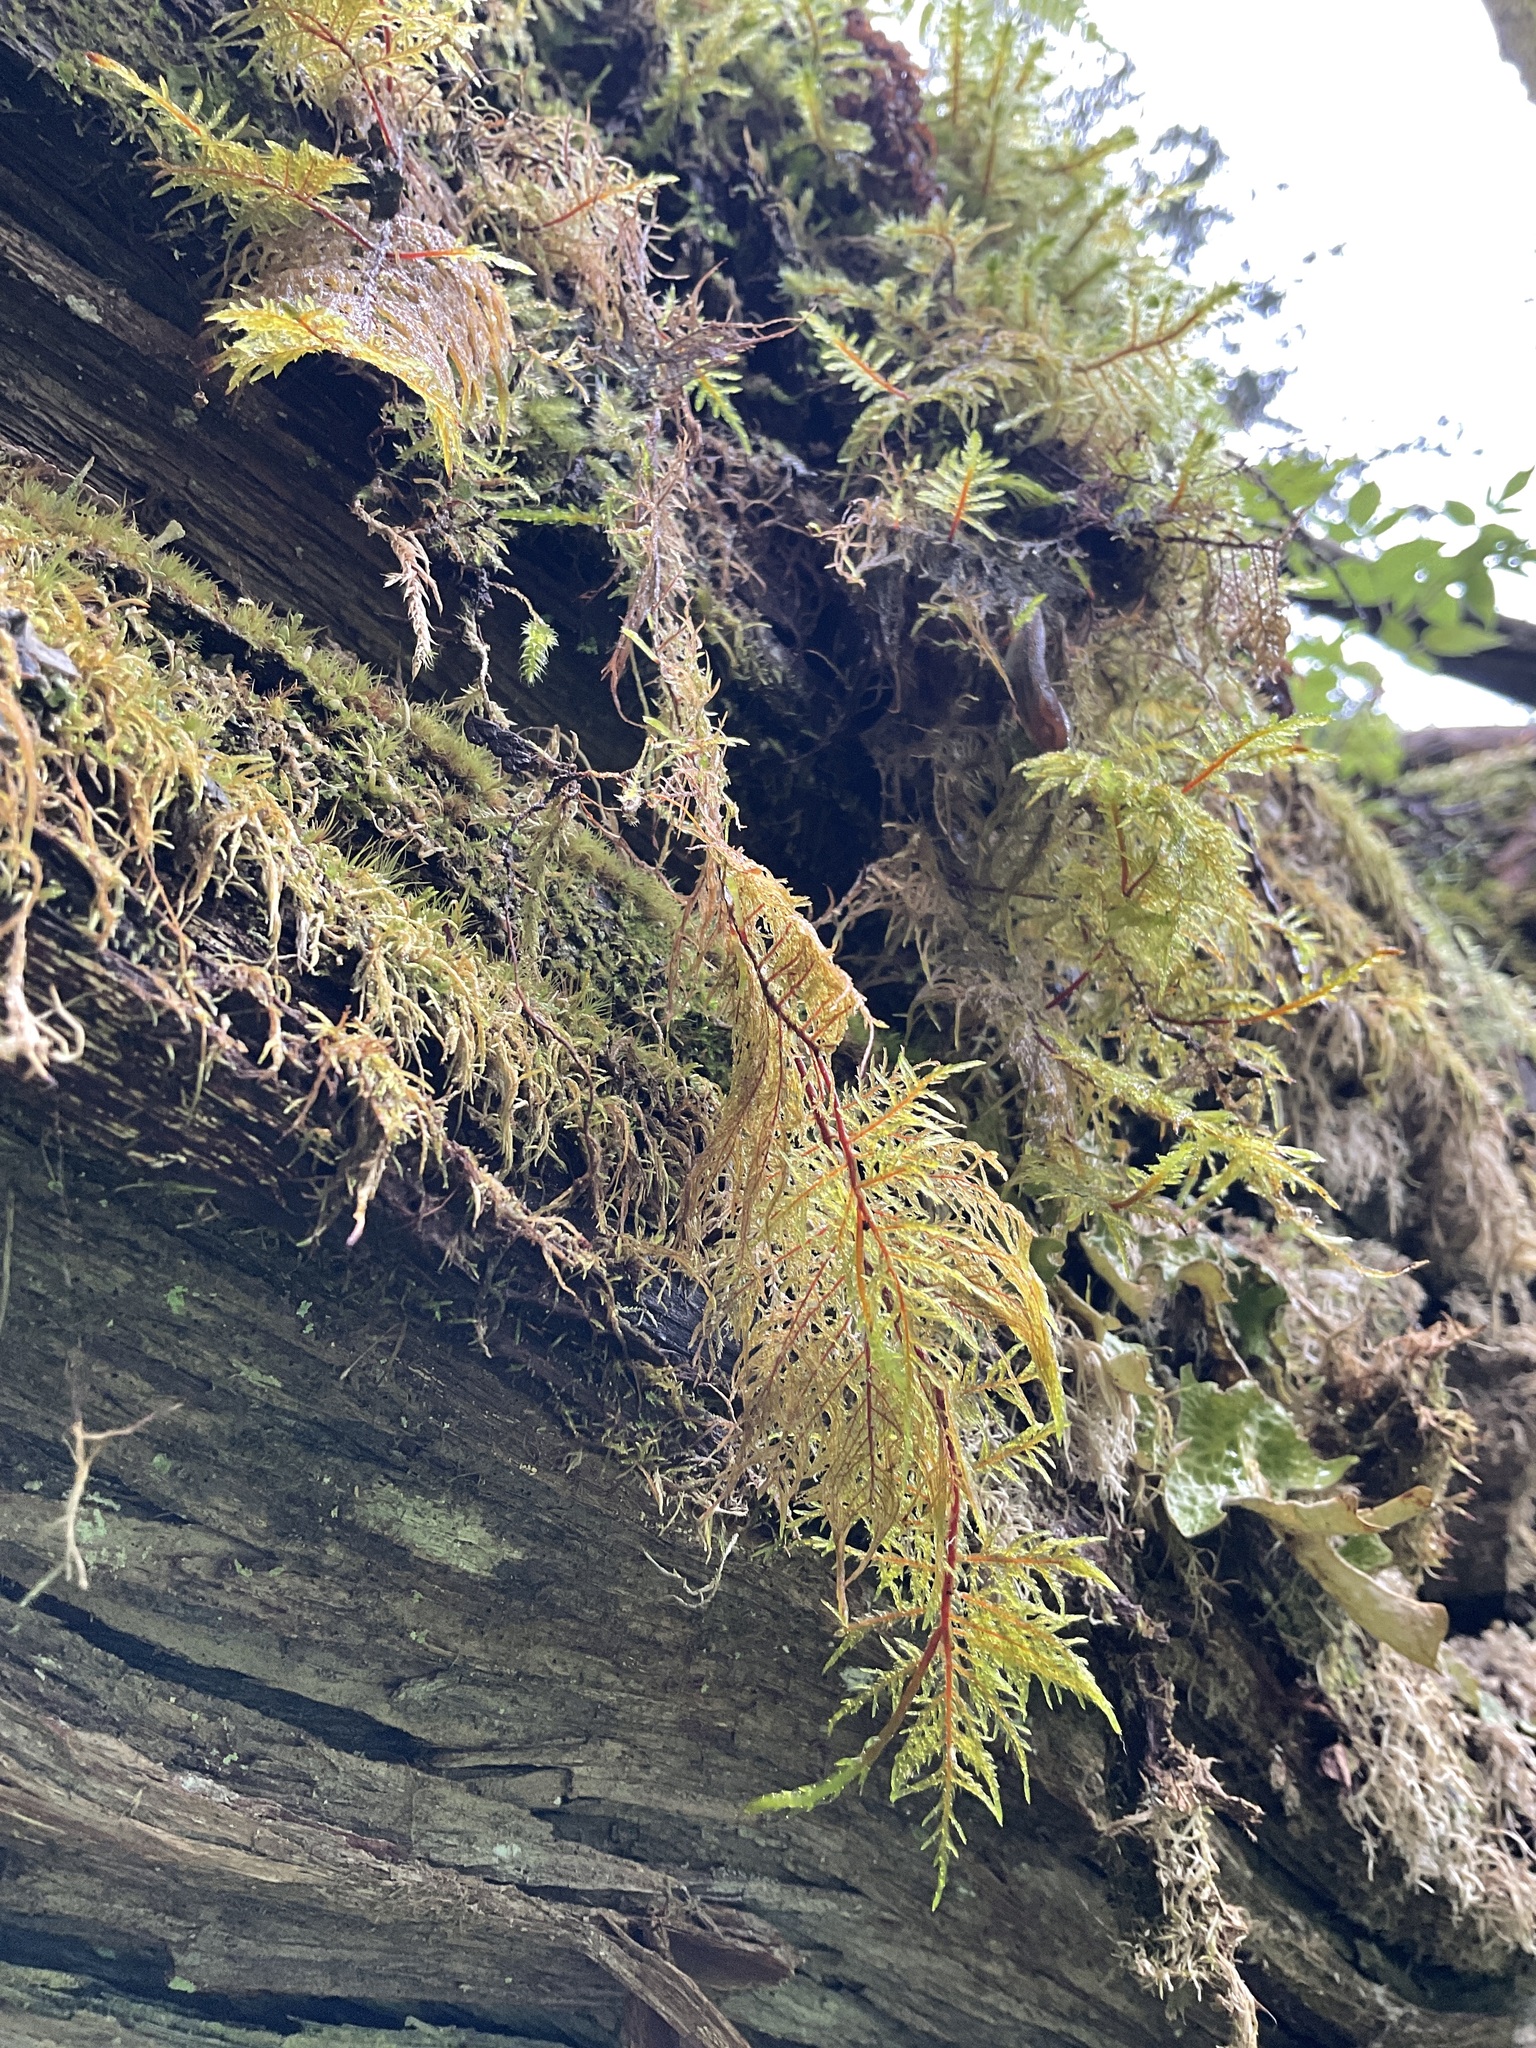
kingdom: Plantae
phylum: Bryophyta
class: Bryopsida
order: Hypnales
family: Hylocomiaceae
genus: Hylocomium
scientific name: Hylocomium splendens
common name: Stairstep moss
